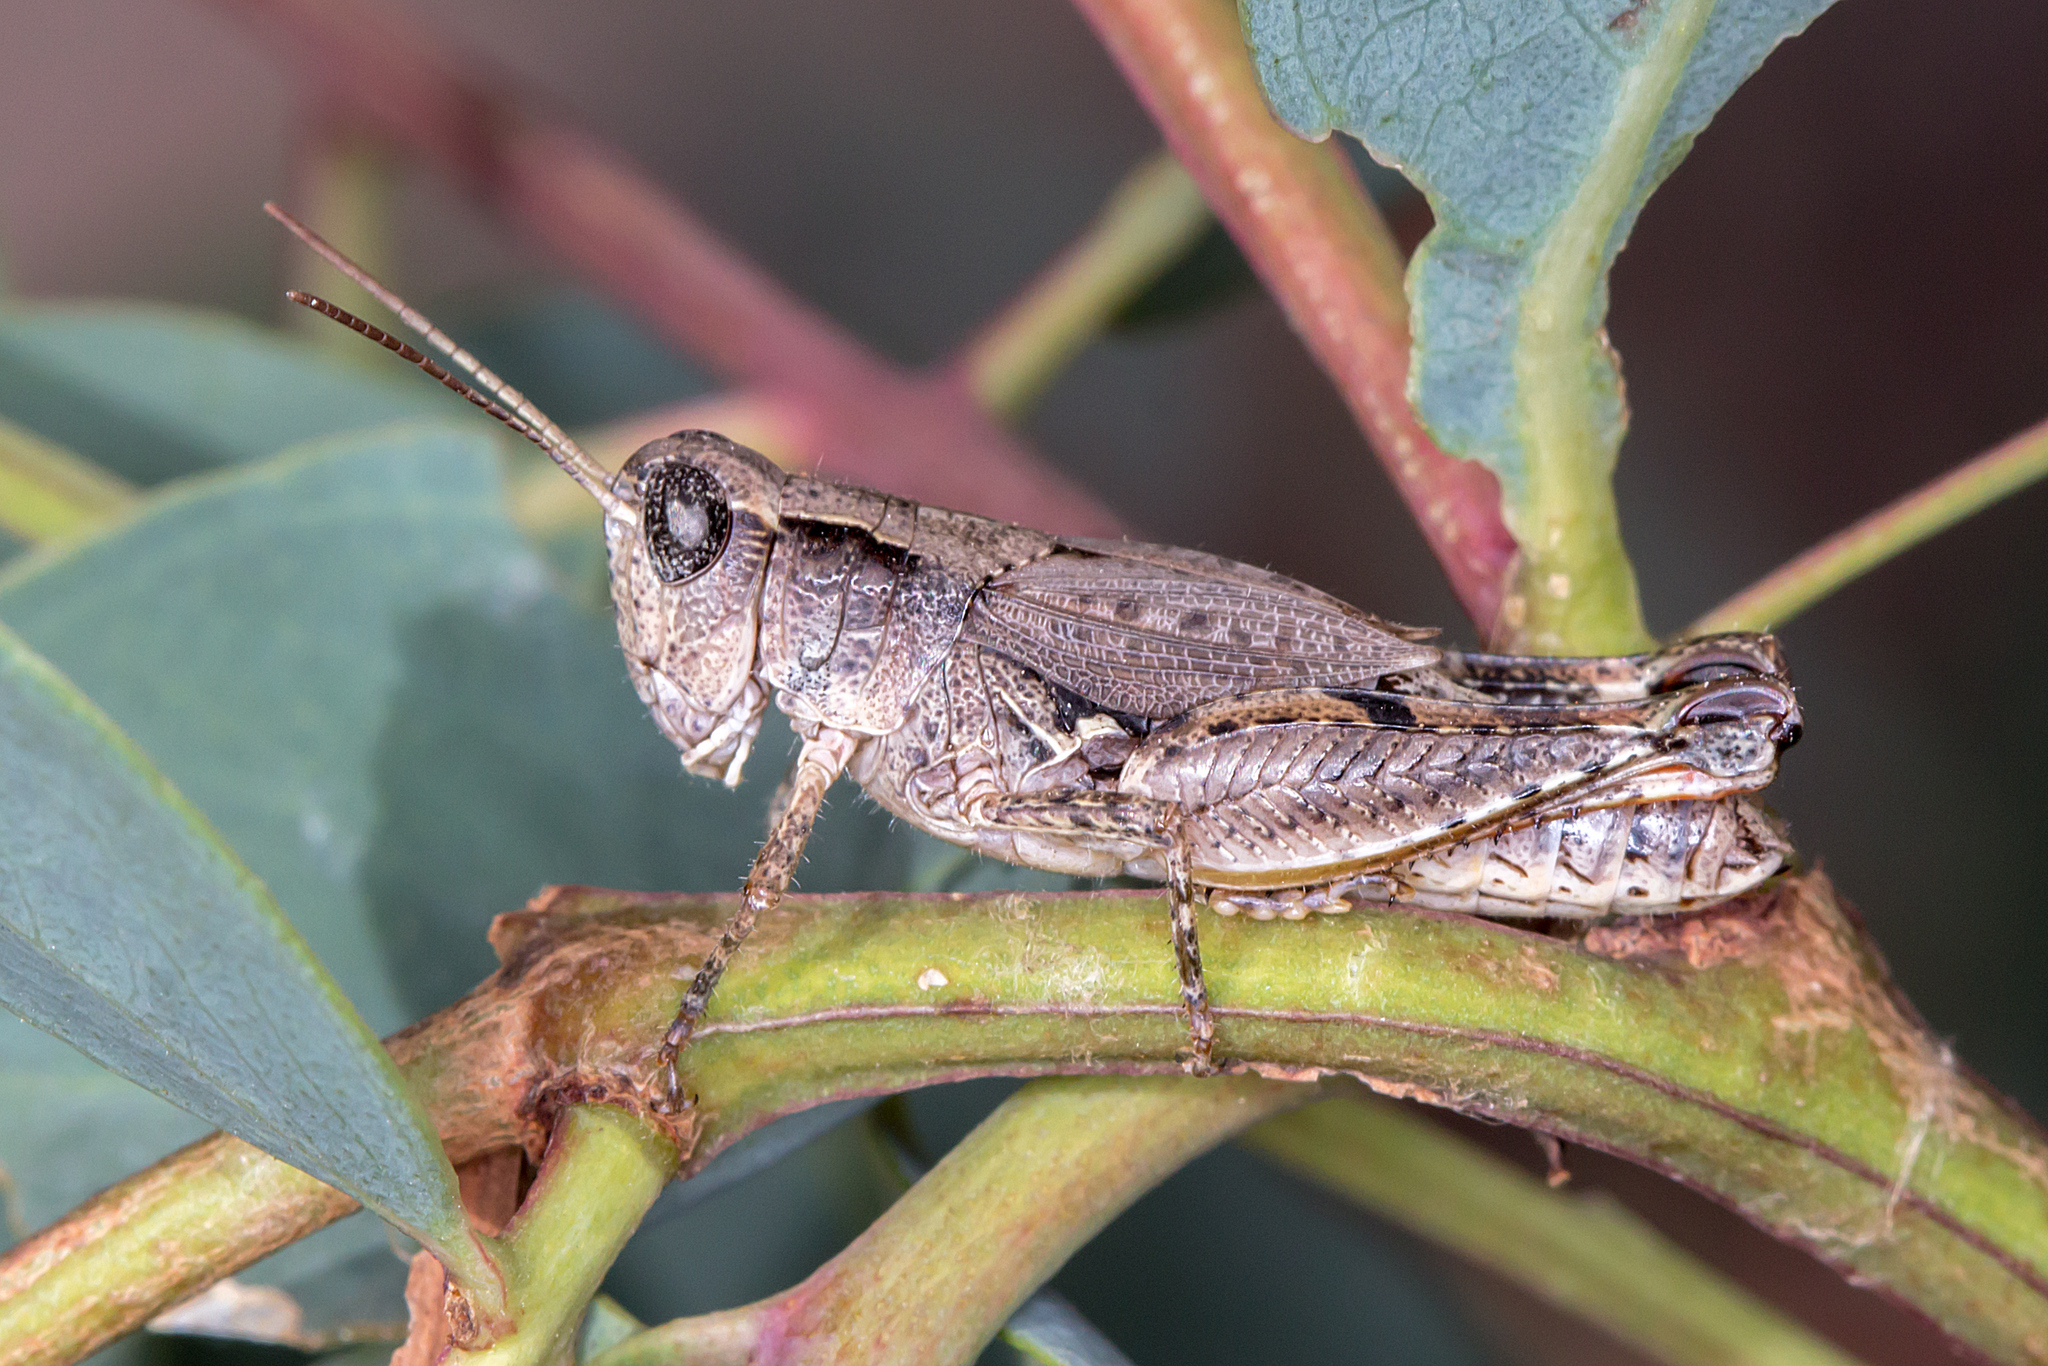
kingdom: Animalia
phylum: Arthropoda
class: Insecta
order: Orthoptera
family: Acrididae
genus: Phaulacridium
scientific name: Phaulacridium vittatum
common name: Wingless grasshopper
